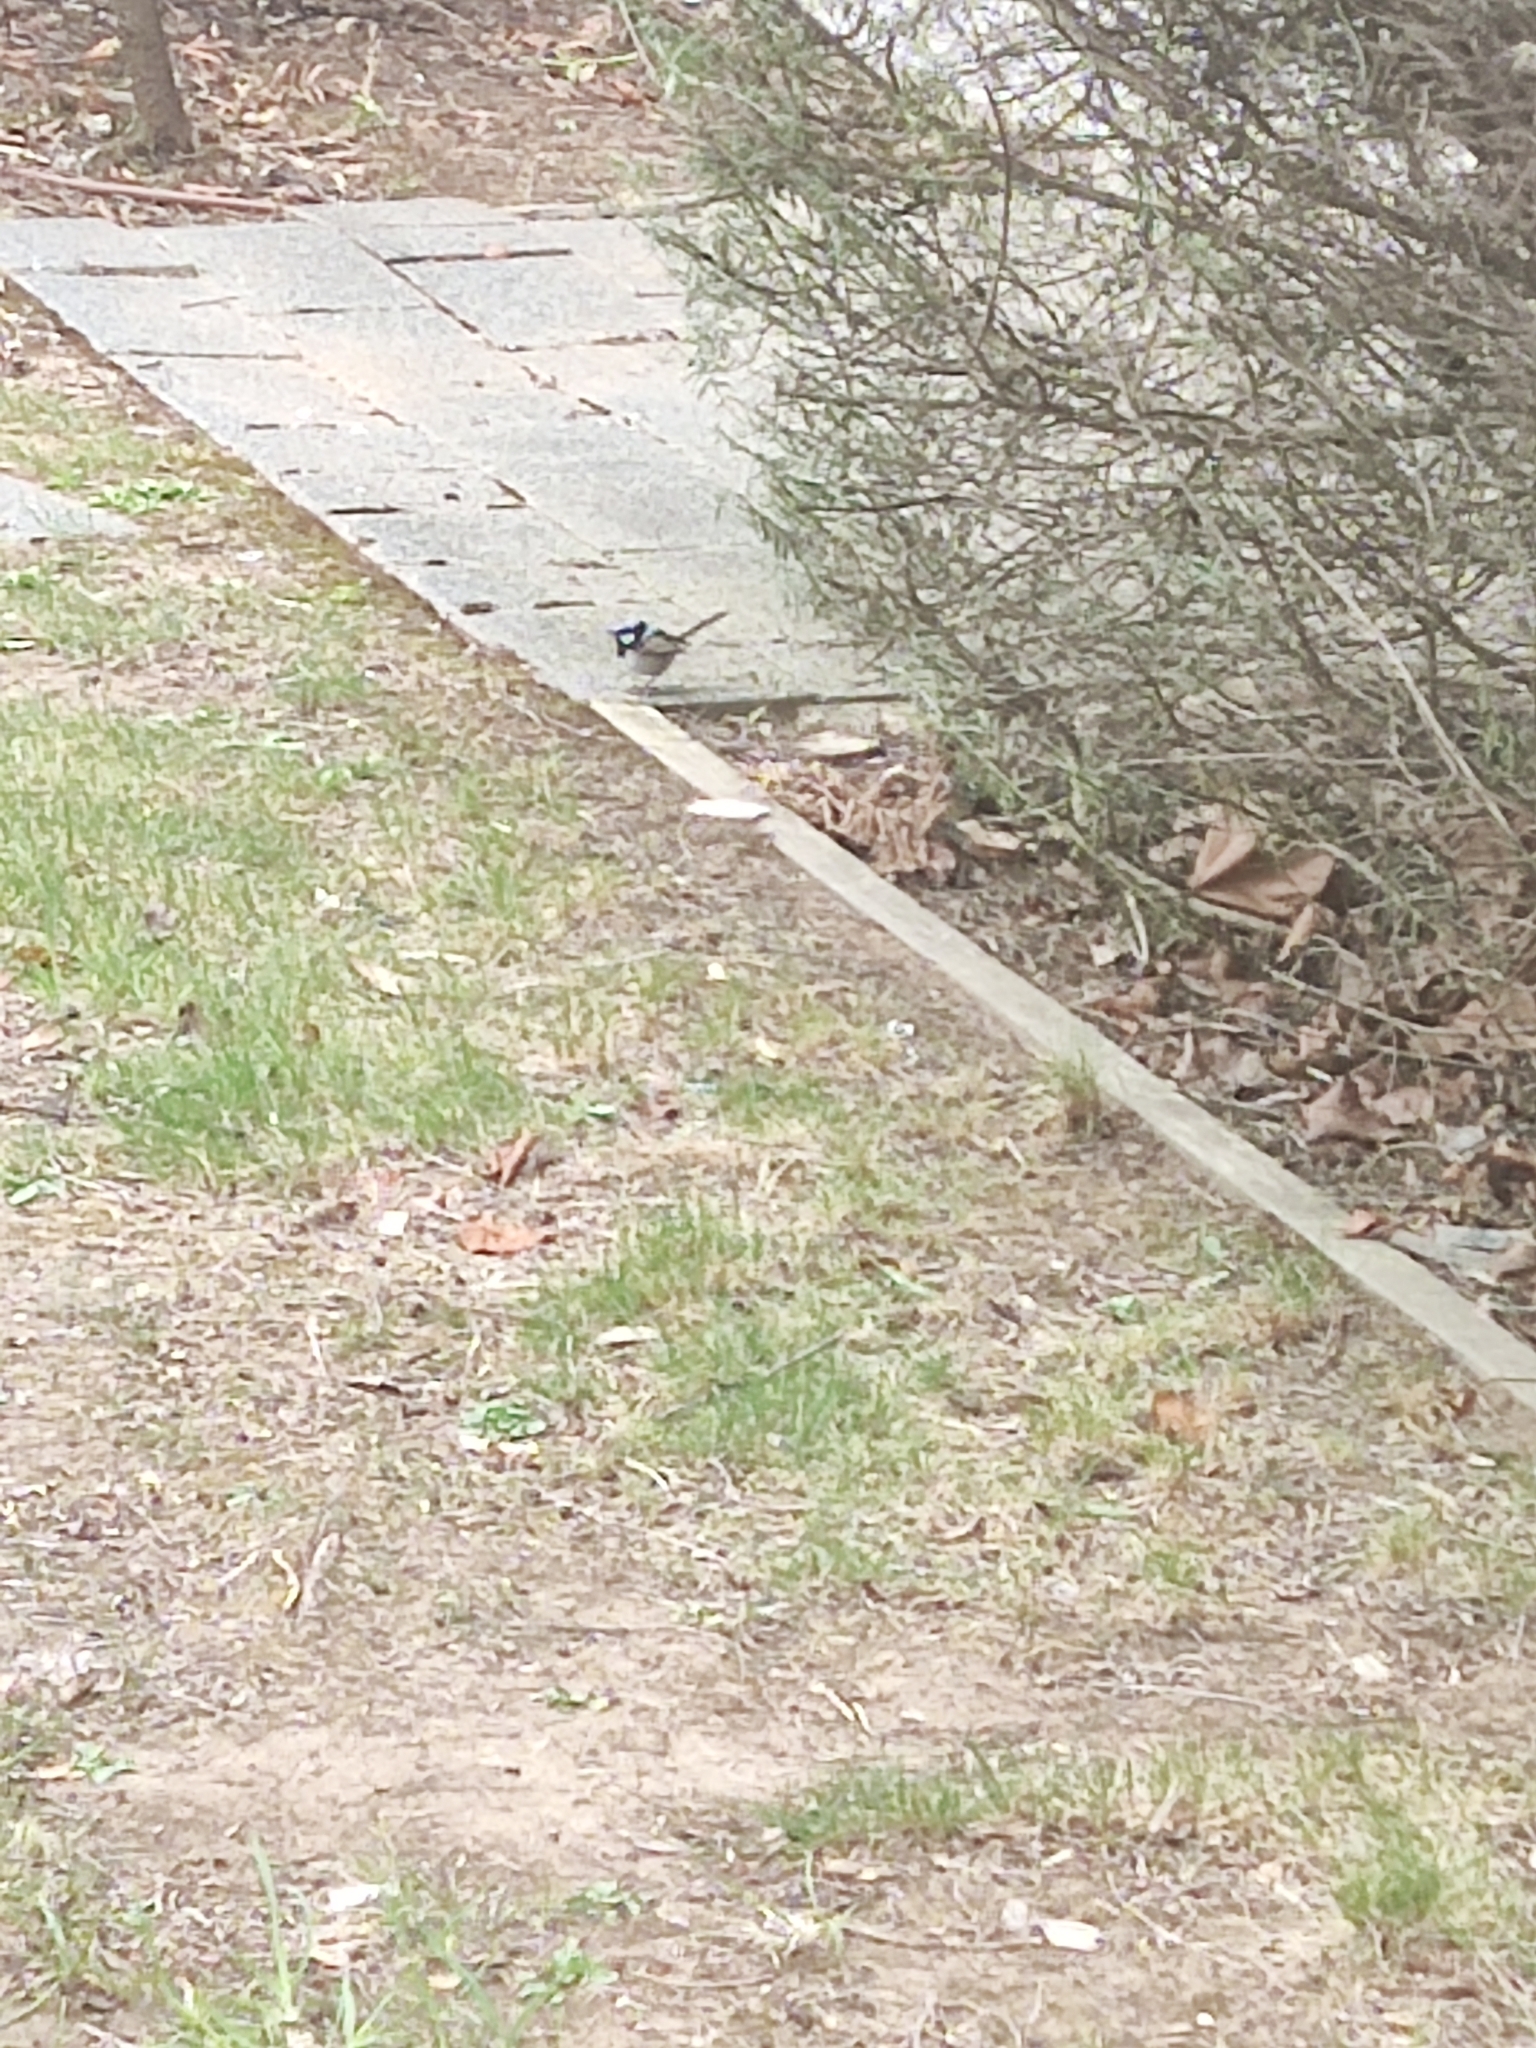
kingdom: Animalia
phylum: Chordata
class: Aves
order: Passeriformes
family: Maluridae
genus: Malurus
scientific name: Malurus cyaneus
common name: Superb fairywren
